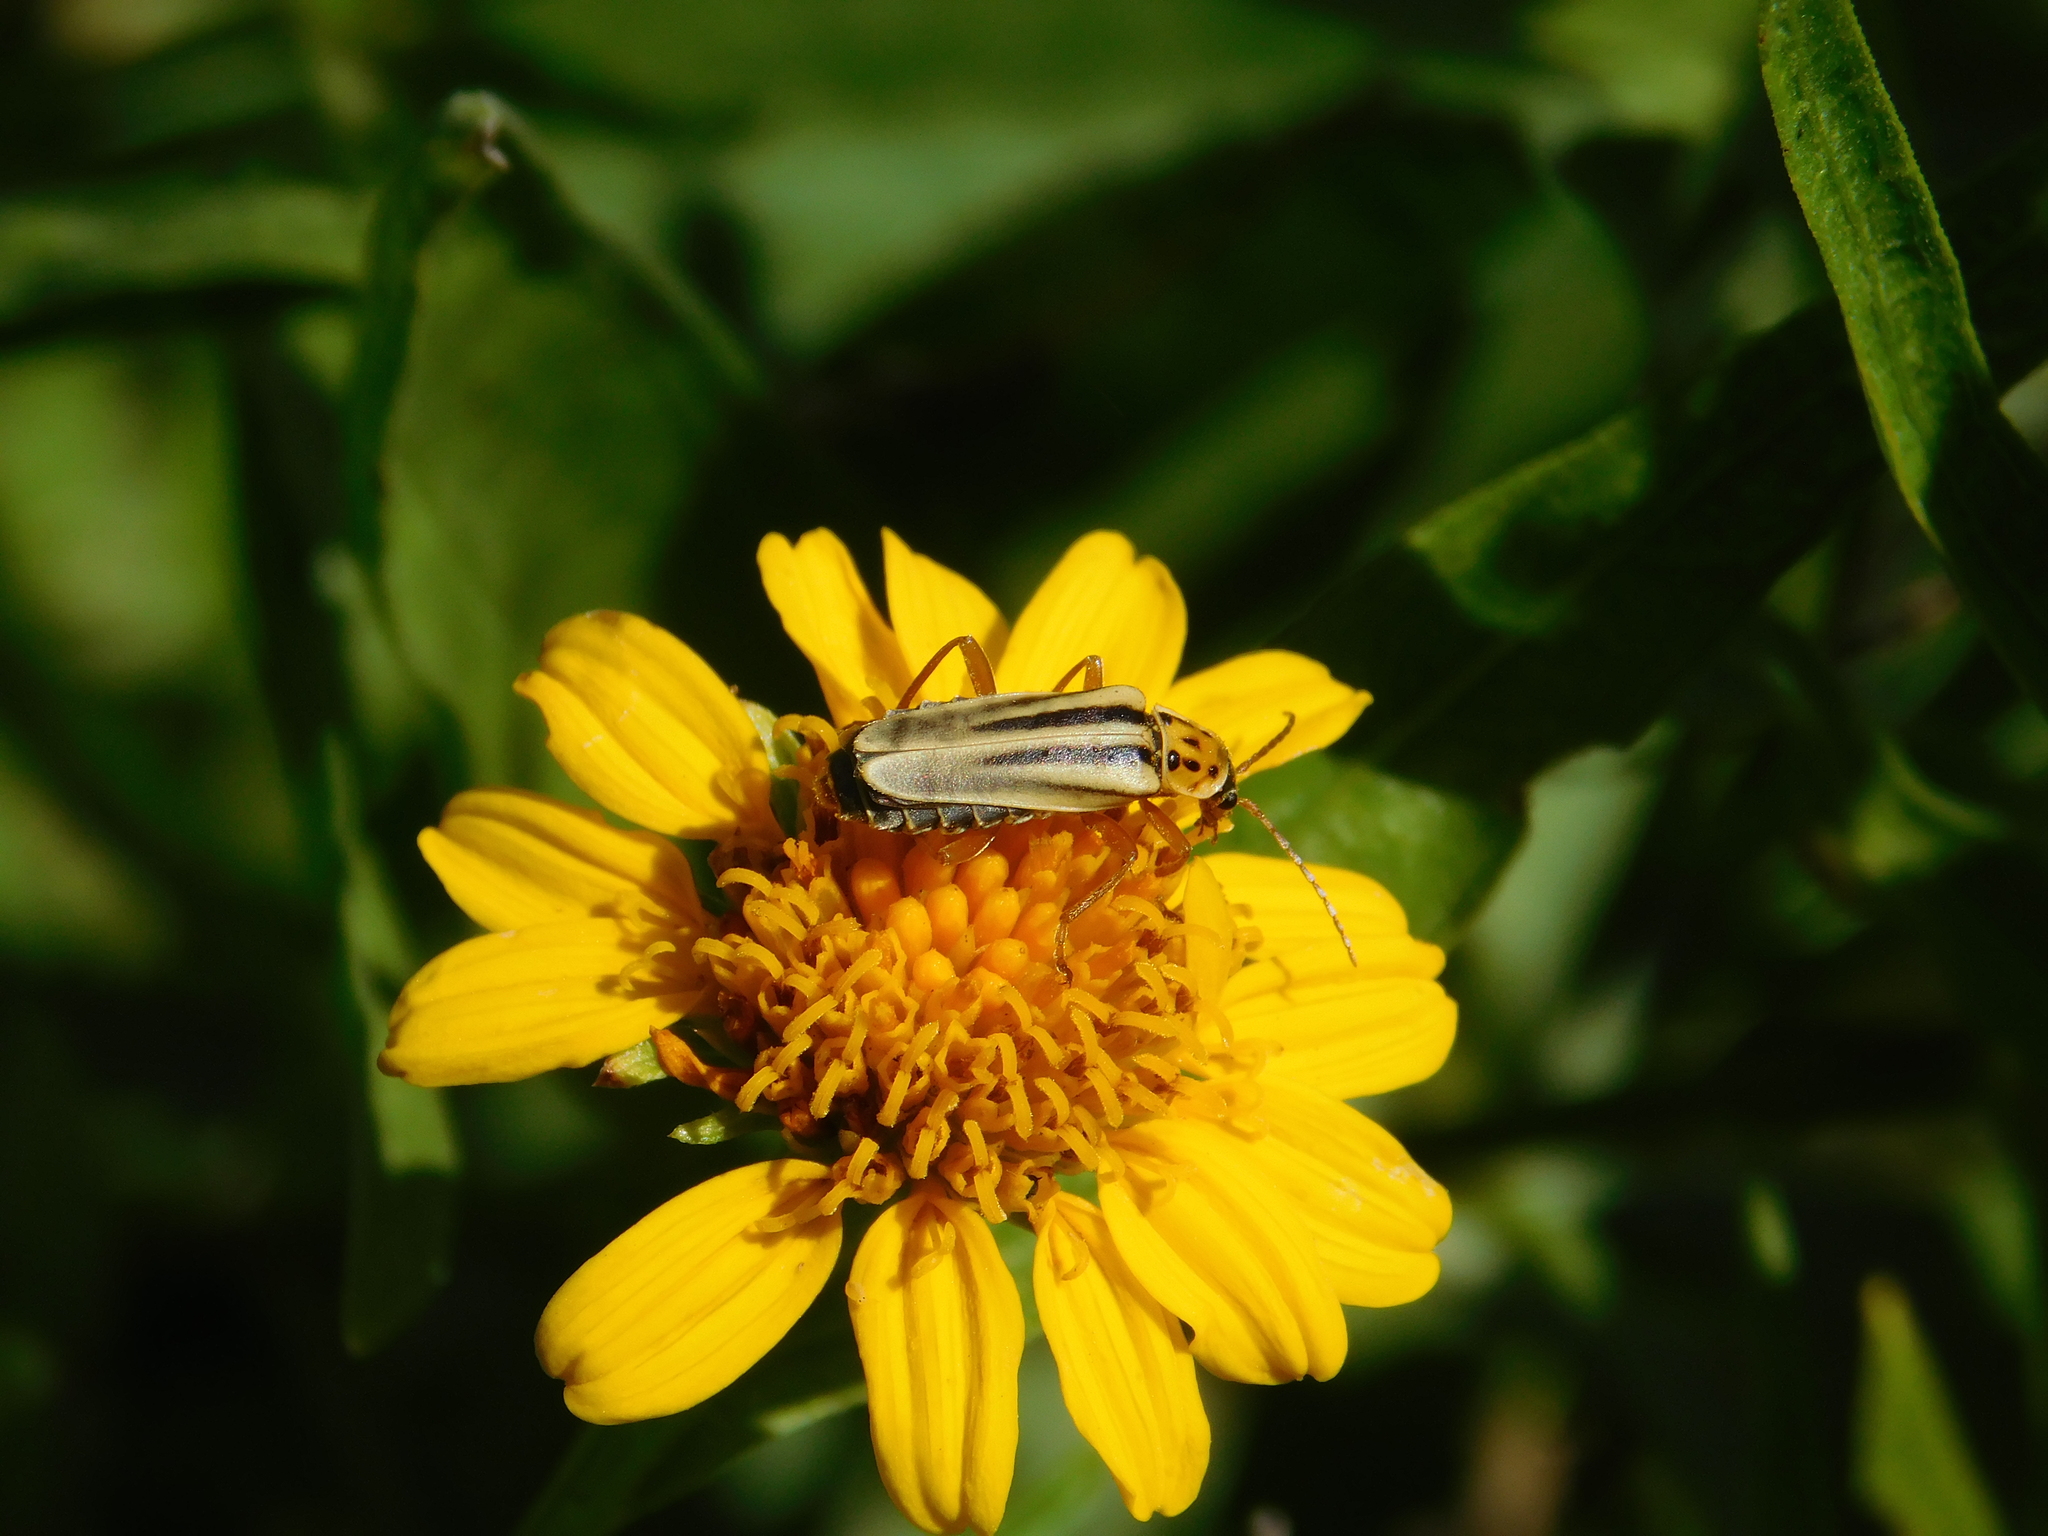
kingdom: Animalia
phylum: Arthropoda
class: Insecta
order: Coleoptera
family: Cantharidae
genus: Chauliognathus
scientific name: Chauliognathus
